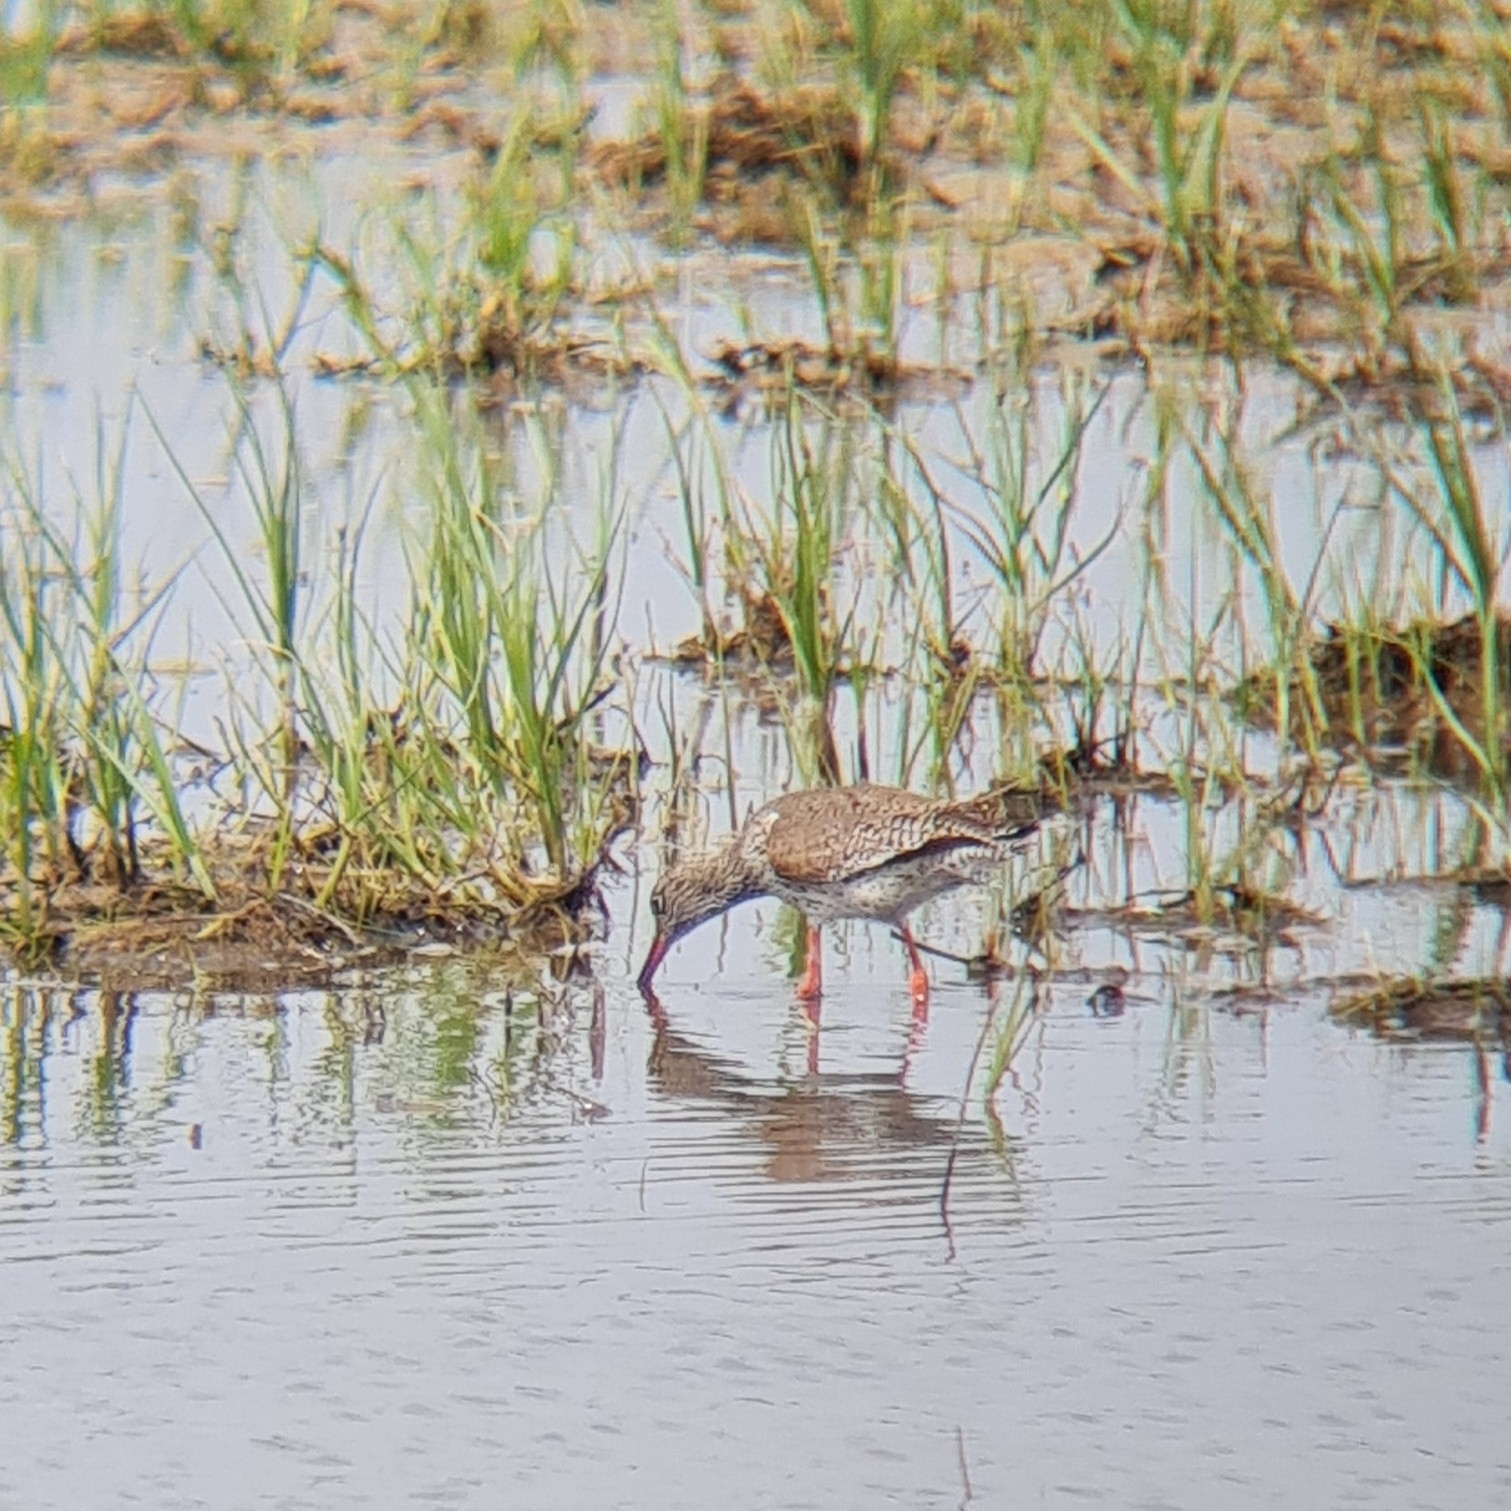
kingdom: Animalia
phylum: Chordata
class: Aves
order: Charadriiformes
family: Scolopacidae
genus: Tringa
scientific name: Tringa totanus
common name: Common redshank
